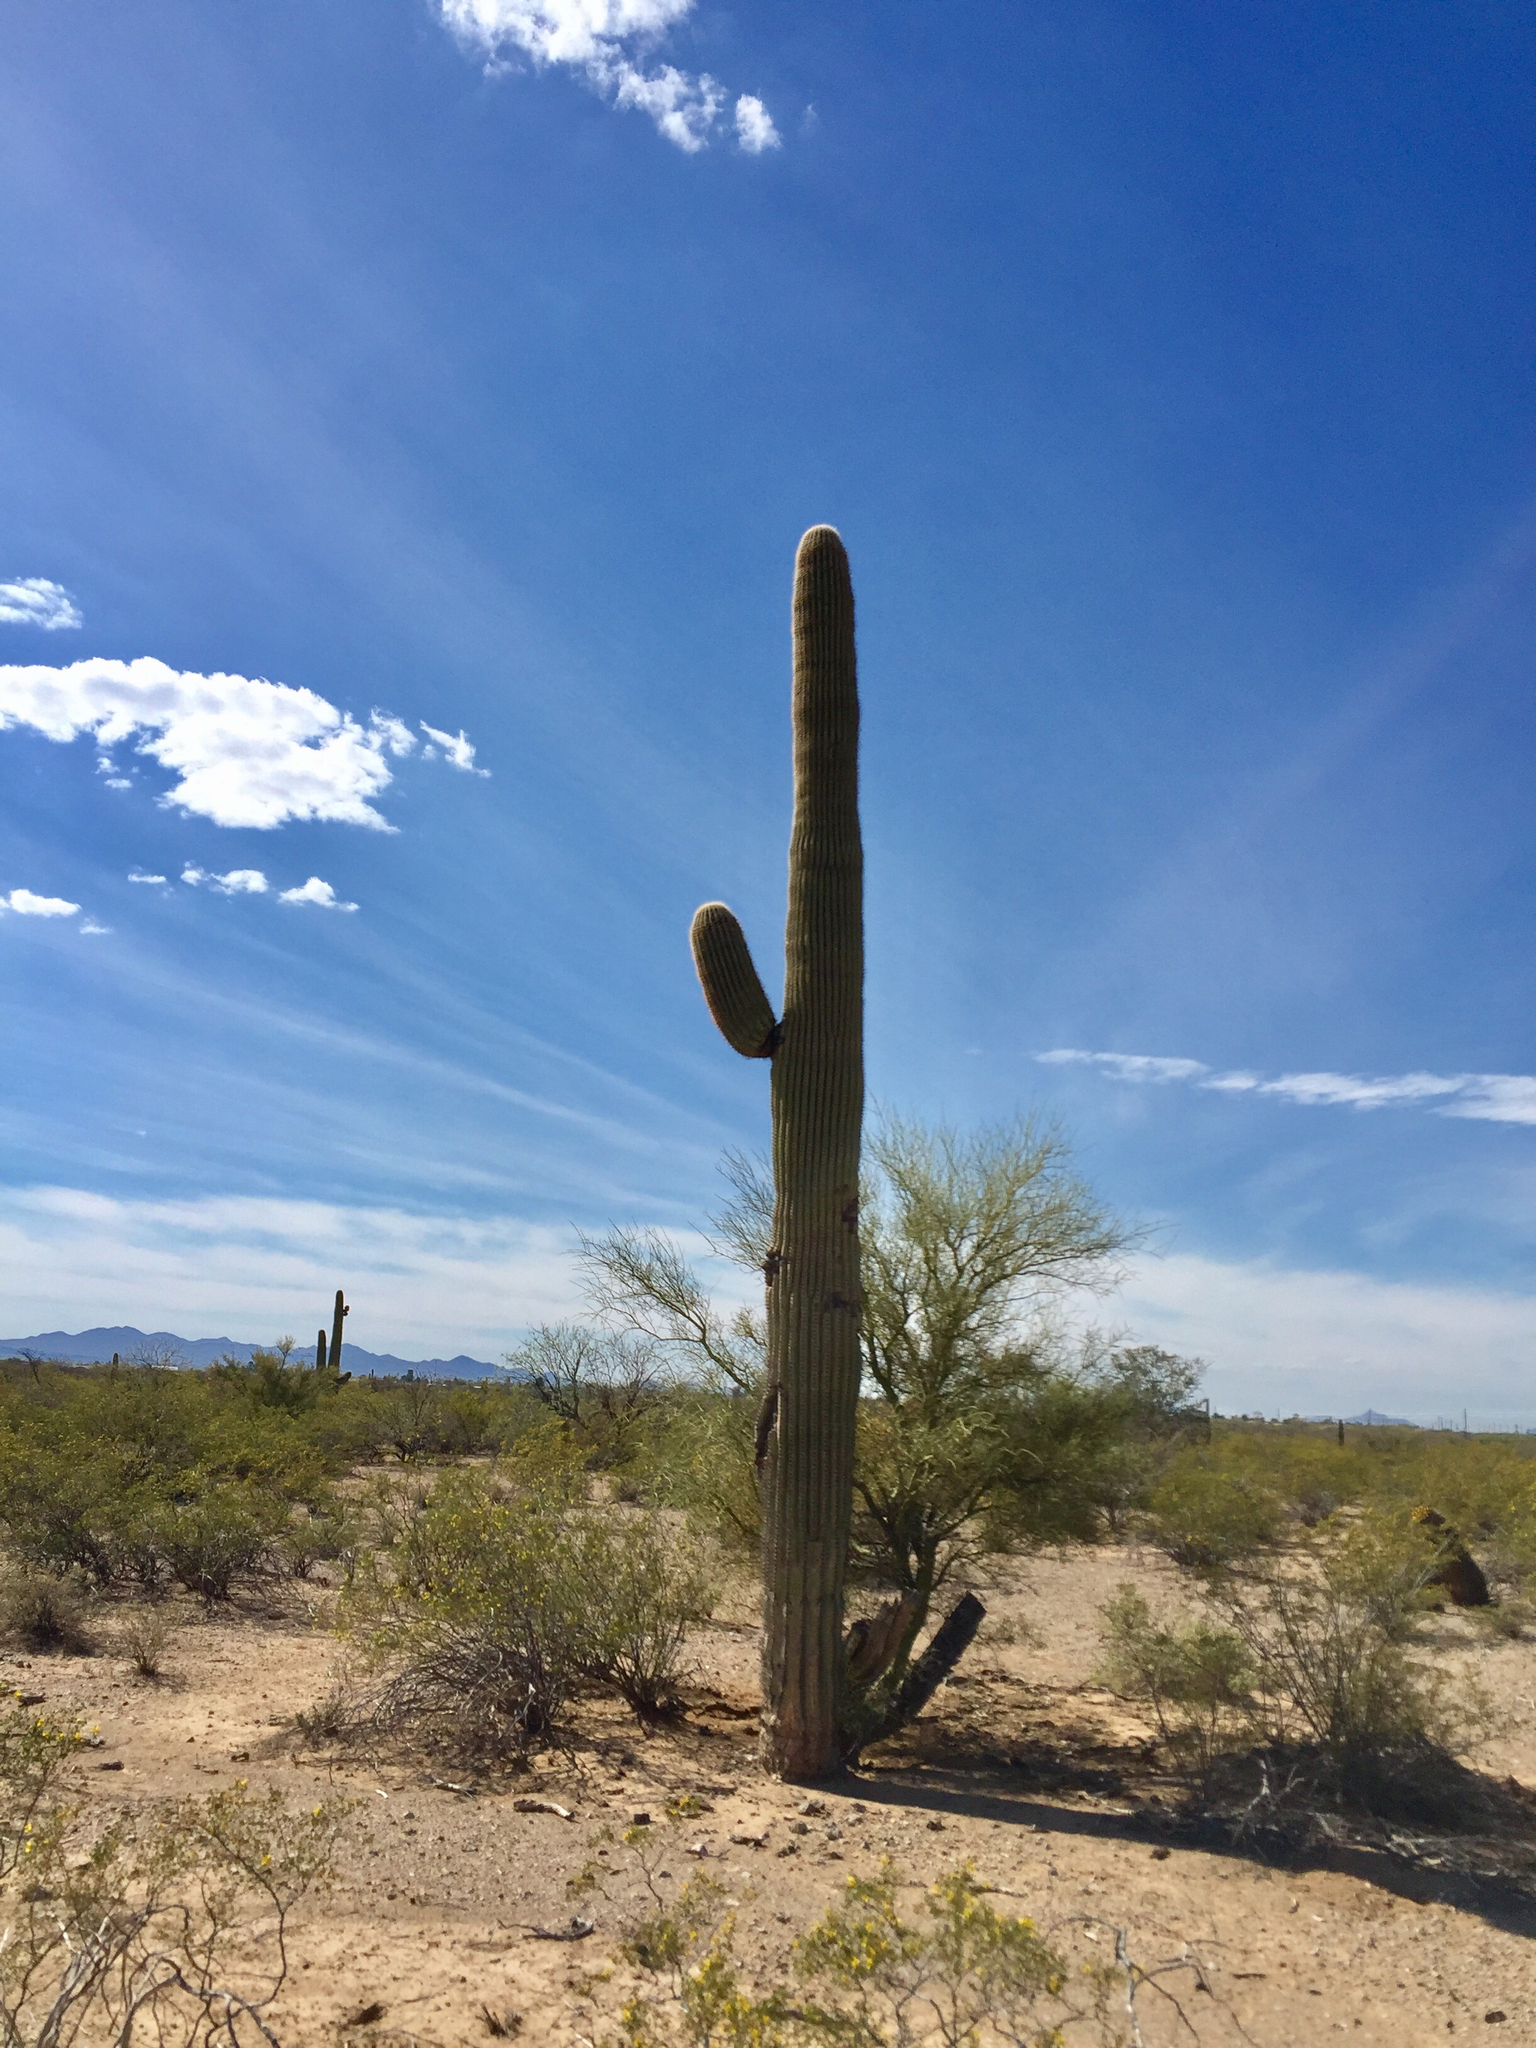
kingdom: Plantae
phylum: Tracheophyta
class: Magnoliopsida
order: Caryophyllales
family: Cactaceae
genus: Carnegiea
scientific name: Carnegiea gigantea
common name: Saguaro
